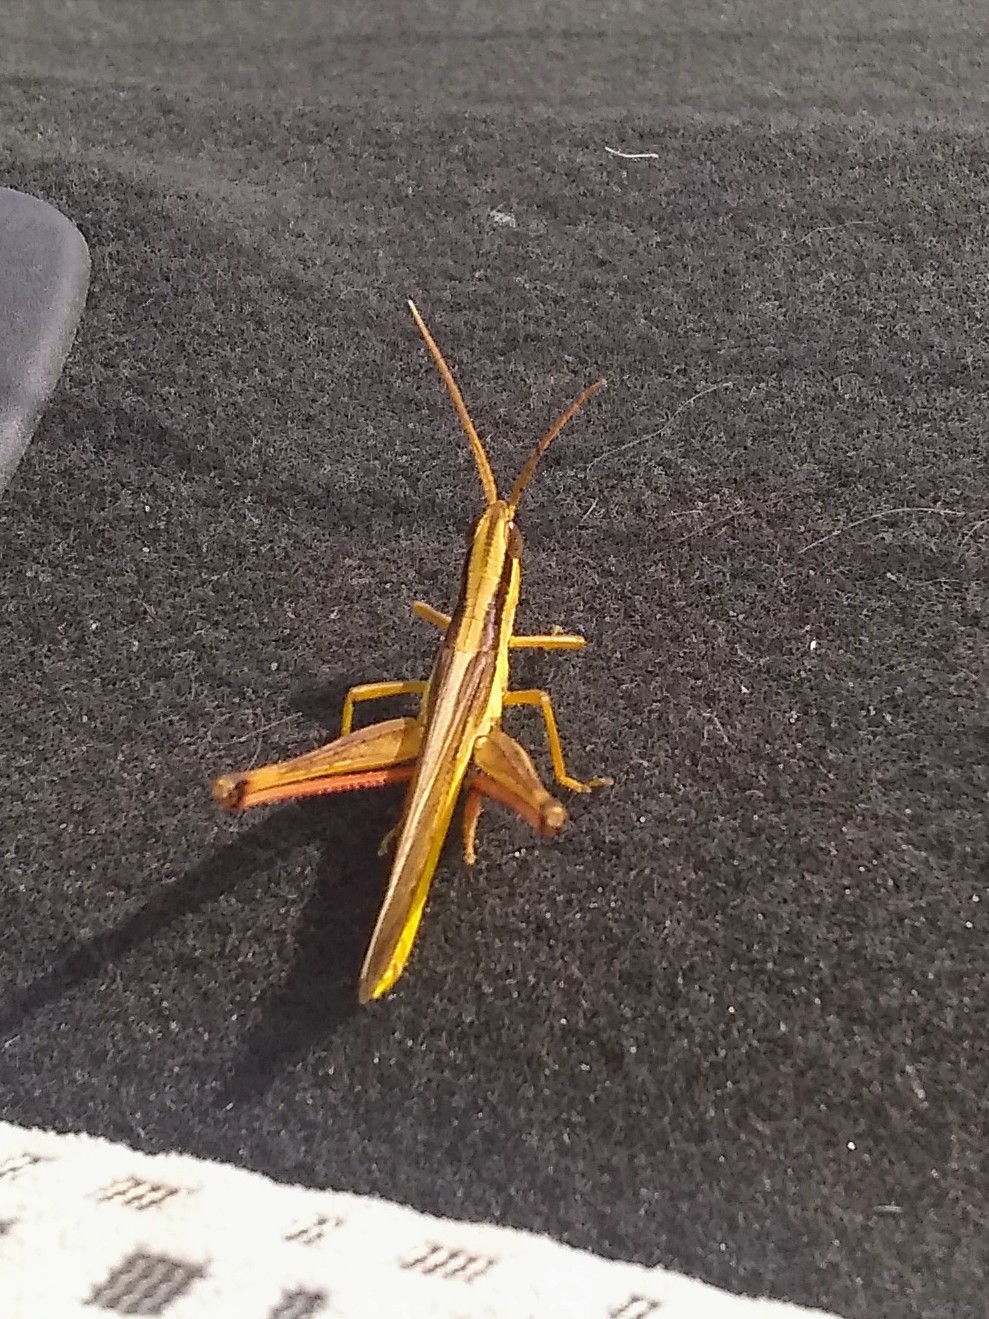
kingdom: Animalia
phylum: Arthropoda
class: Insecta
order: Orthoptera
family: Acrididae
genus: Mermiria
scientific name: Mermiria bivittata
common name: Two-striped mermiria grasshopper
